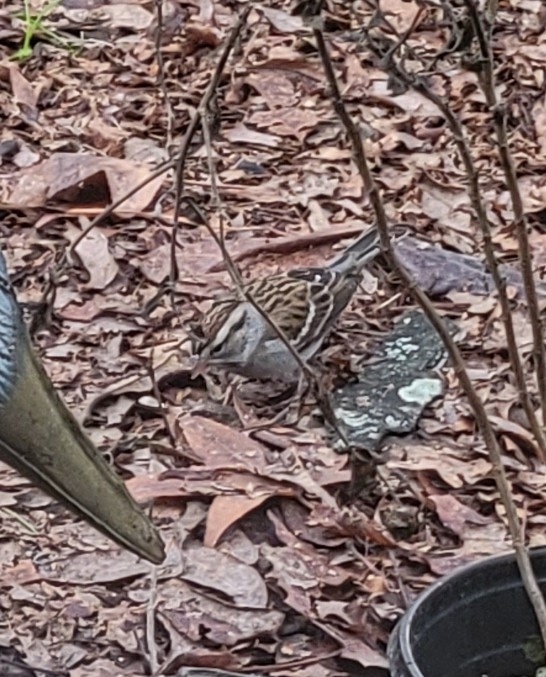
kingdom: Animalia
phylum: Chordata
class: Aves
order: Passeriformes
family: Passerellidae
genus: Spizella
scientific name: Spizella passerina
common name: Chipping sparrow
